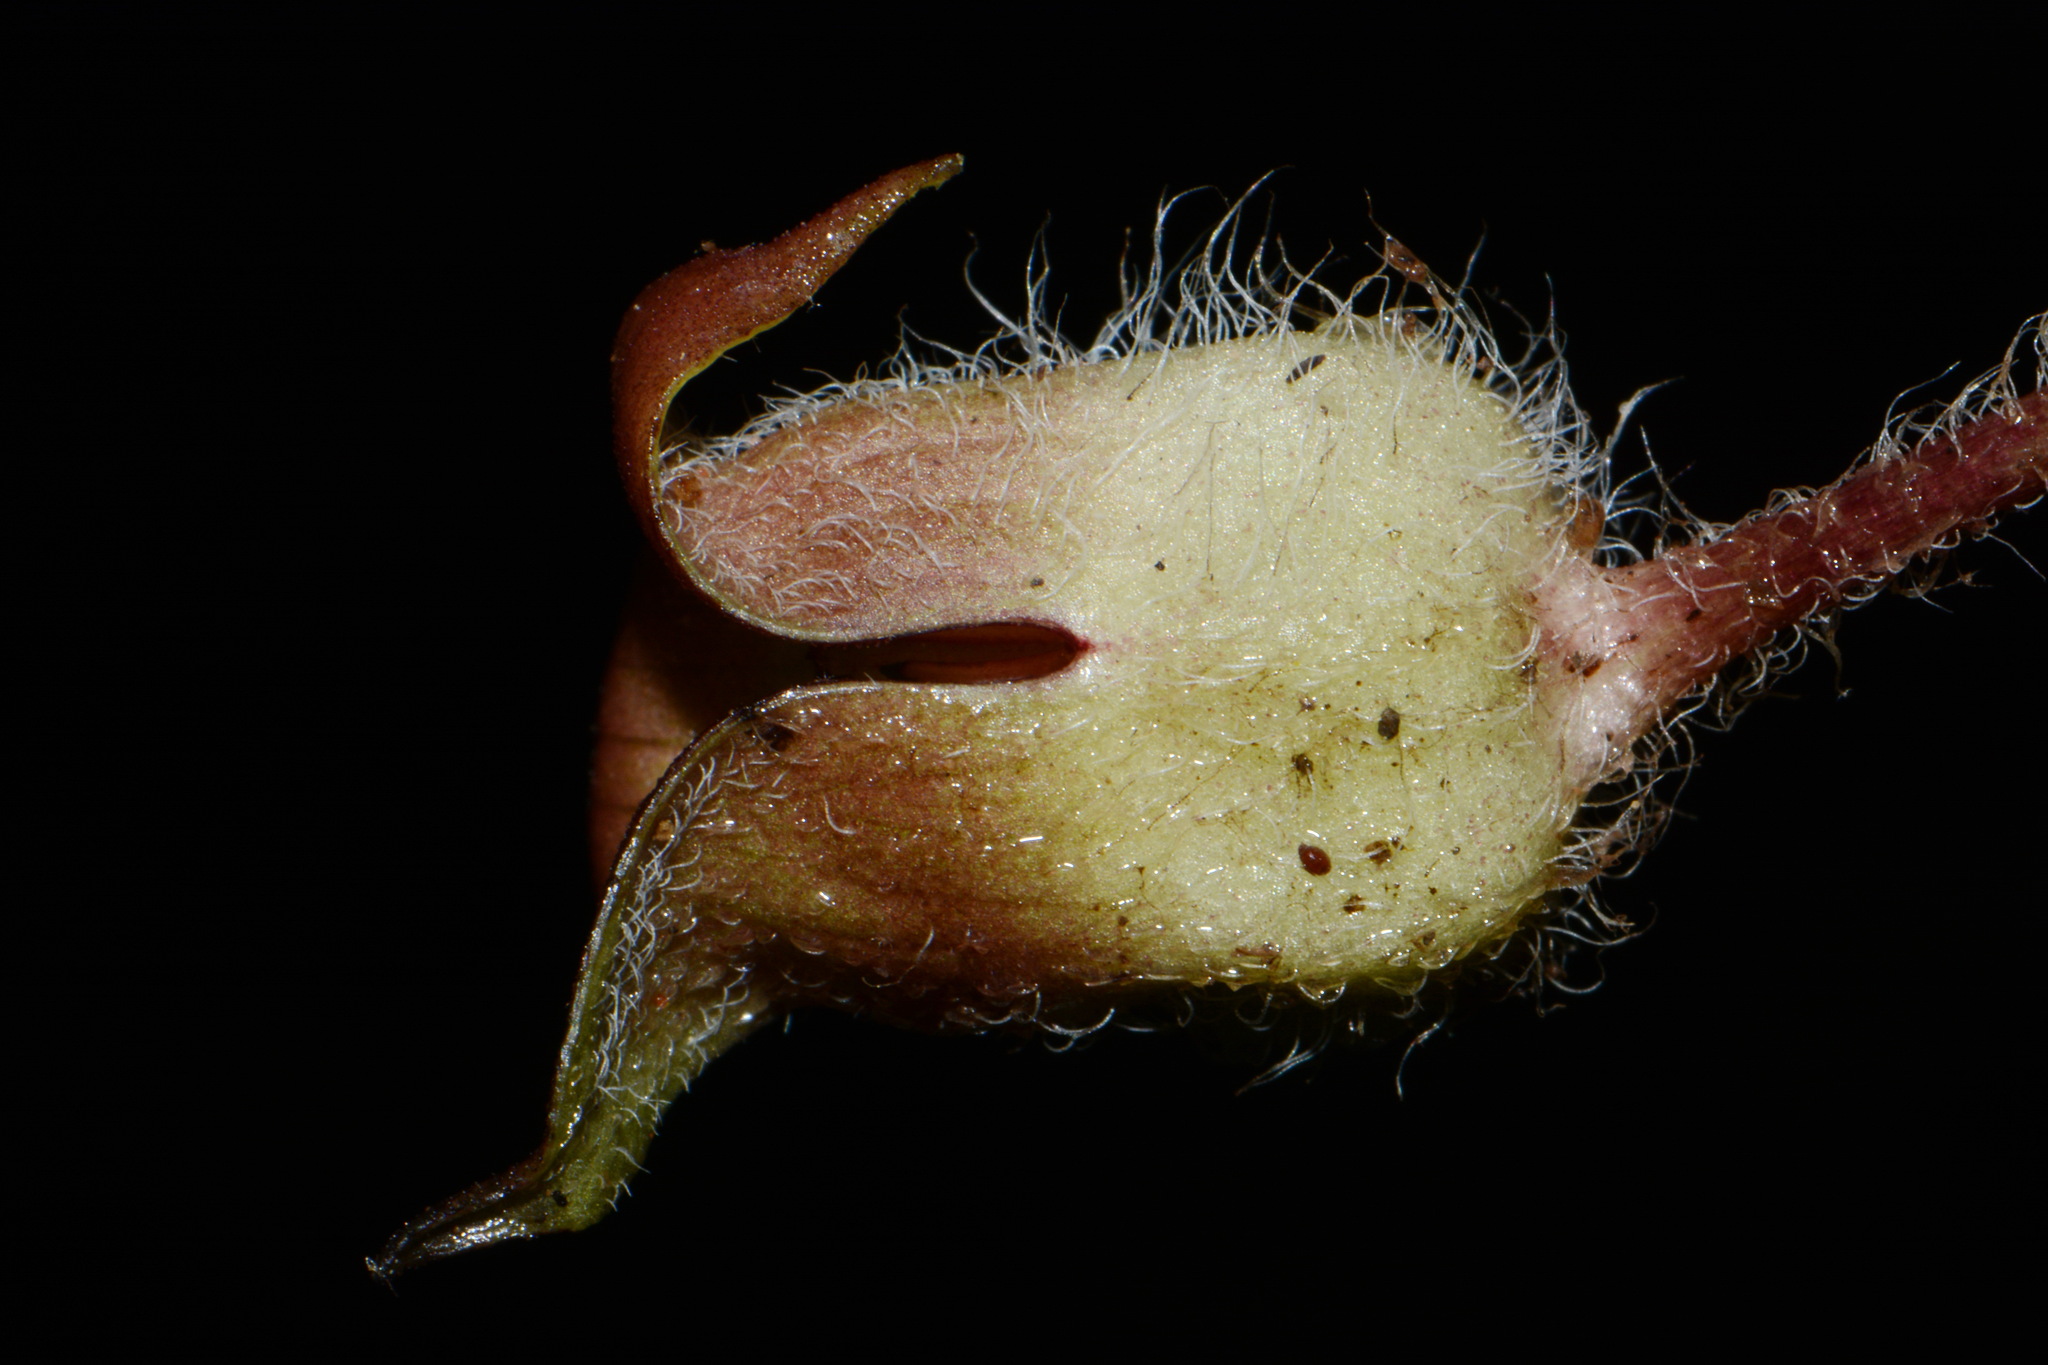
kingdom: Plantae
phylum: Tracheophyta
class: Magnoliopsida
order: Piperales
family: Aristolochiaceae
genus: Asarum
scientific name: Asarum canadense
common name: Wild ginger
